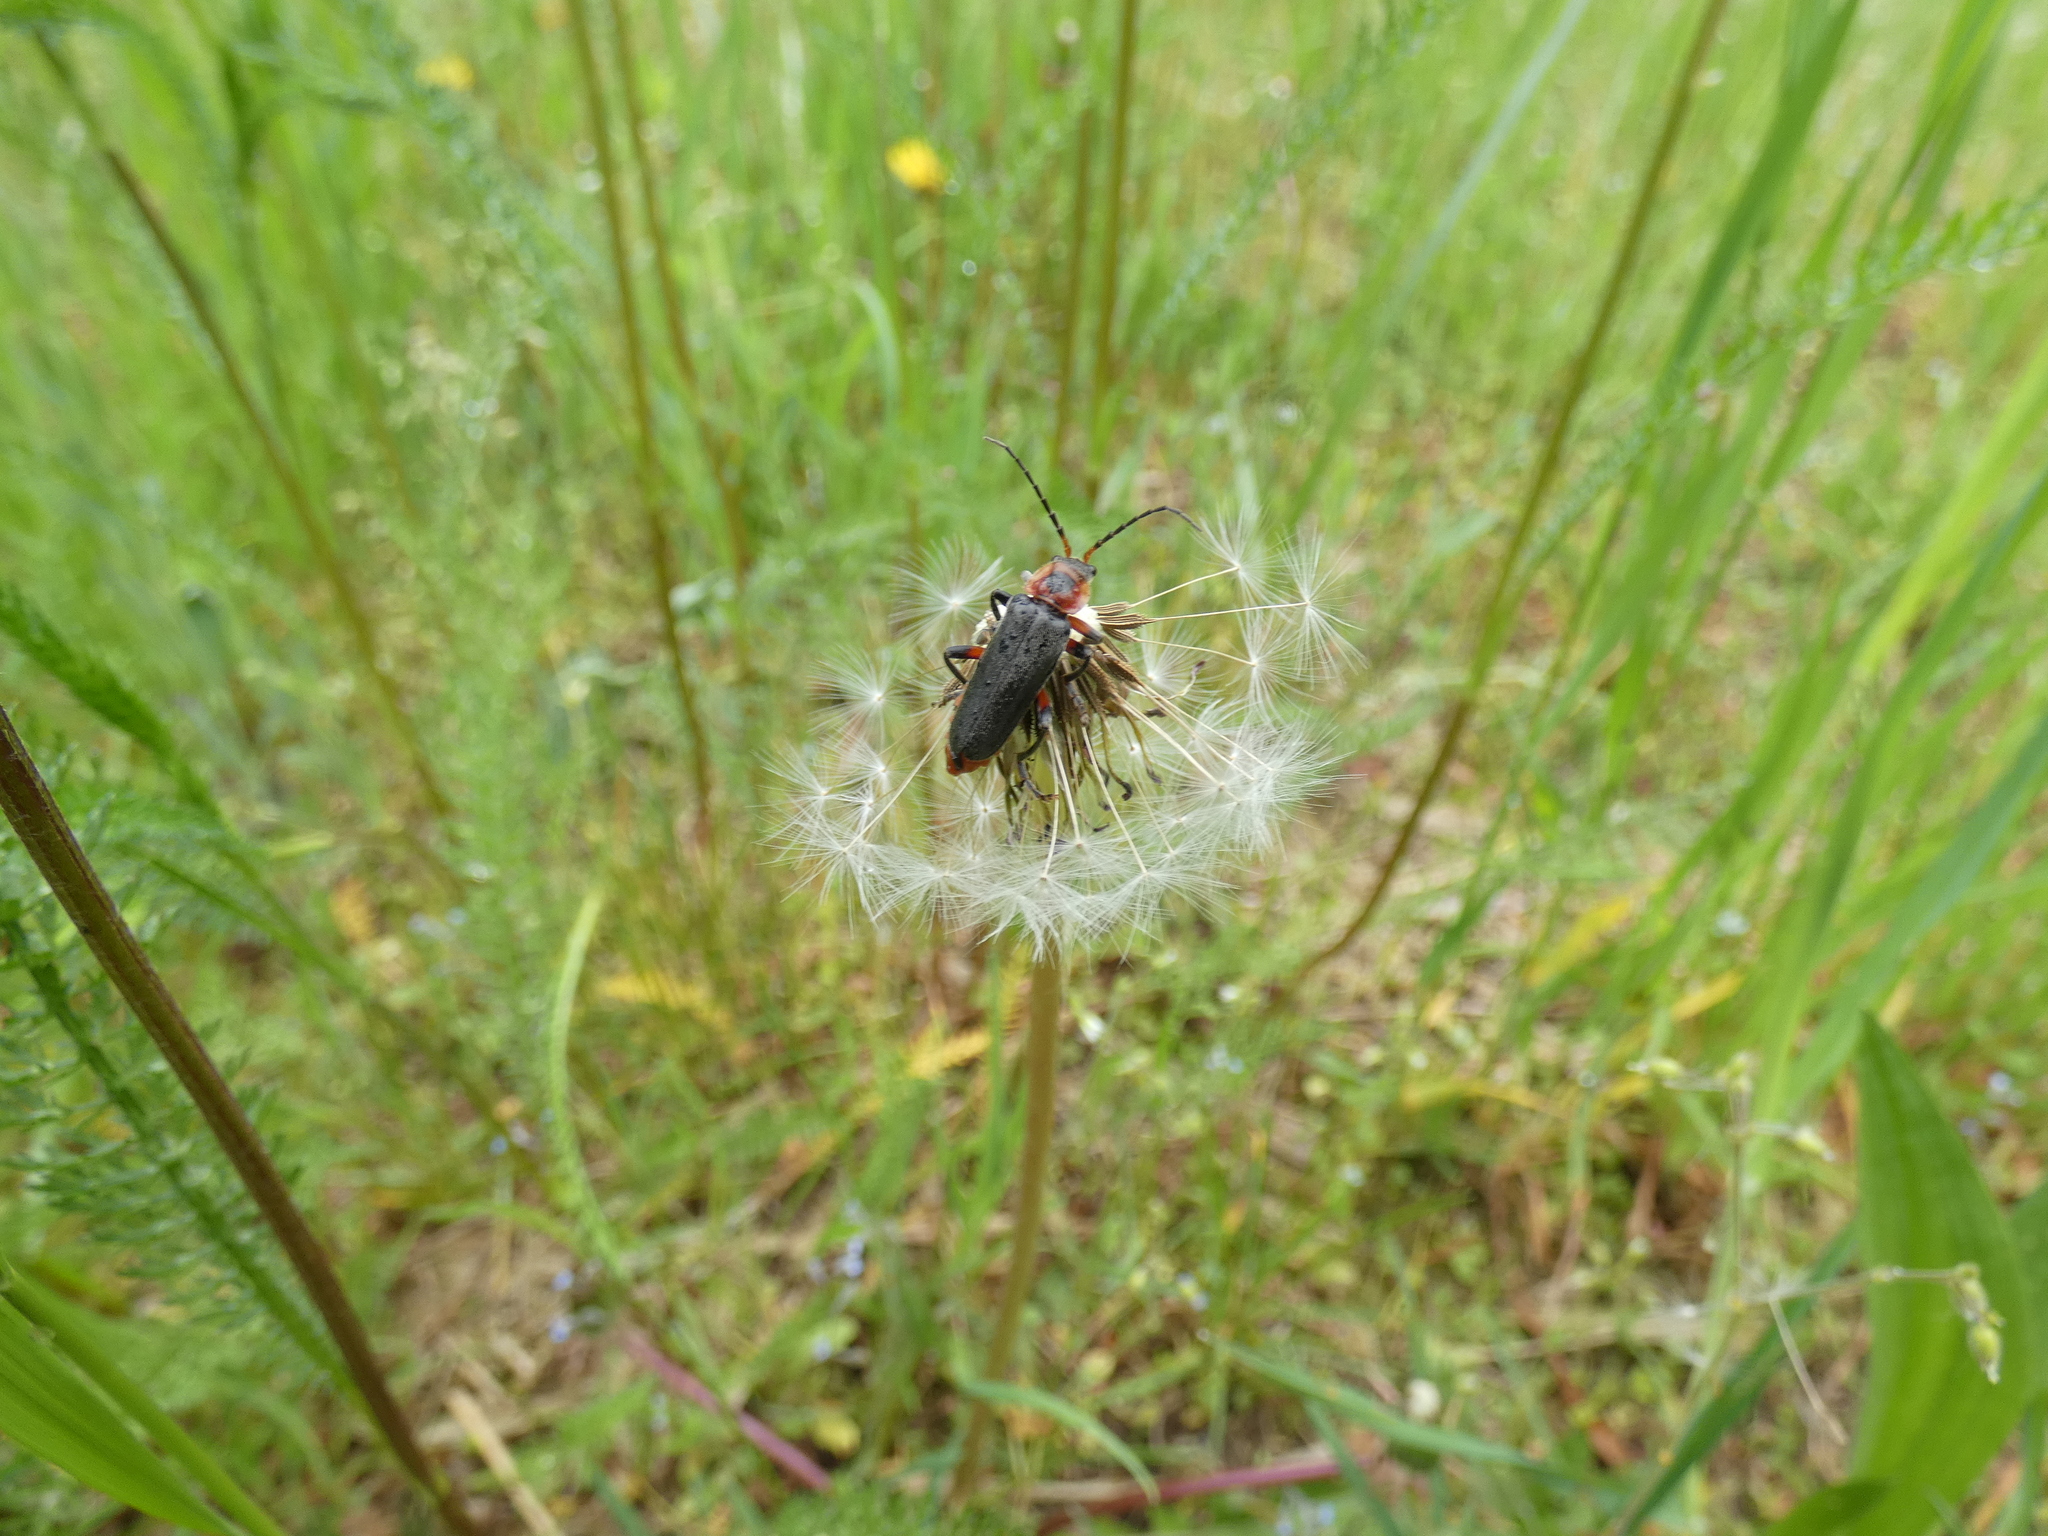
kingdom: Animalia
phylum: Arthropoda
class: Insecta
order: Coleoptera
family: Cantharidae
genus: Cantharis
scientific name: Cantharis rustica
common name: Soldier beetle
